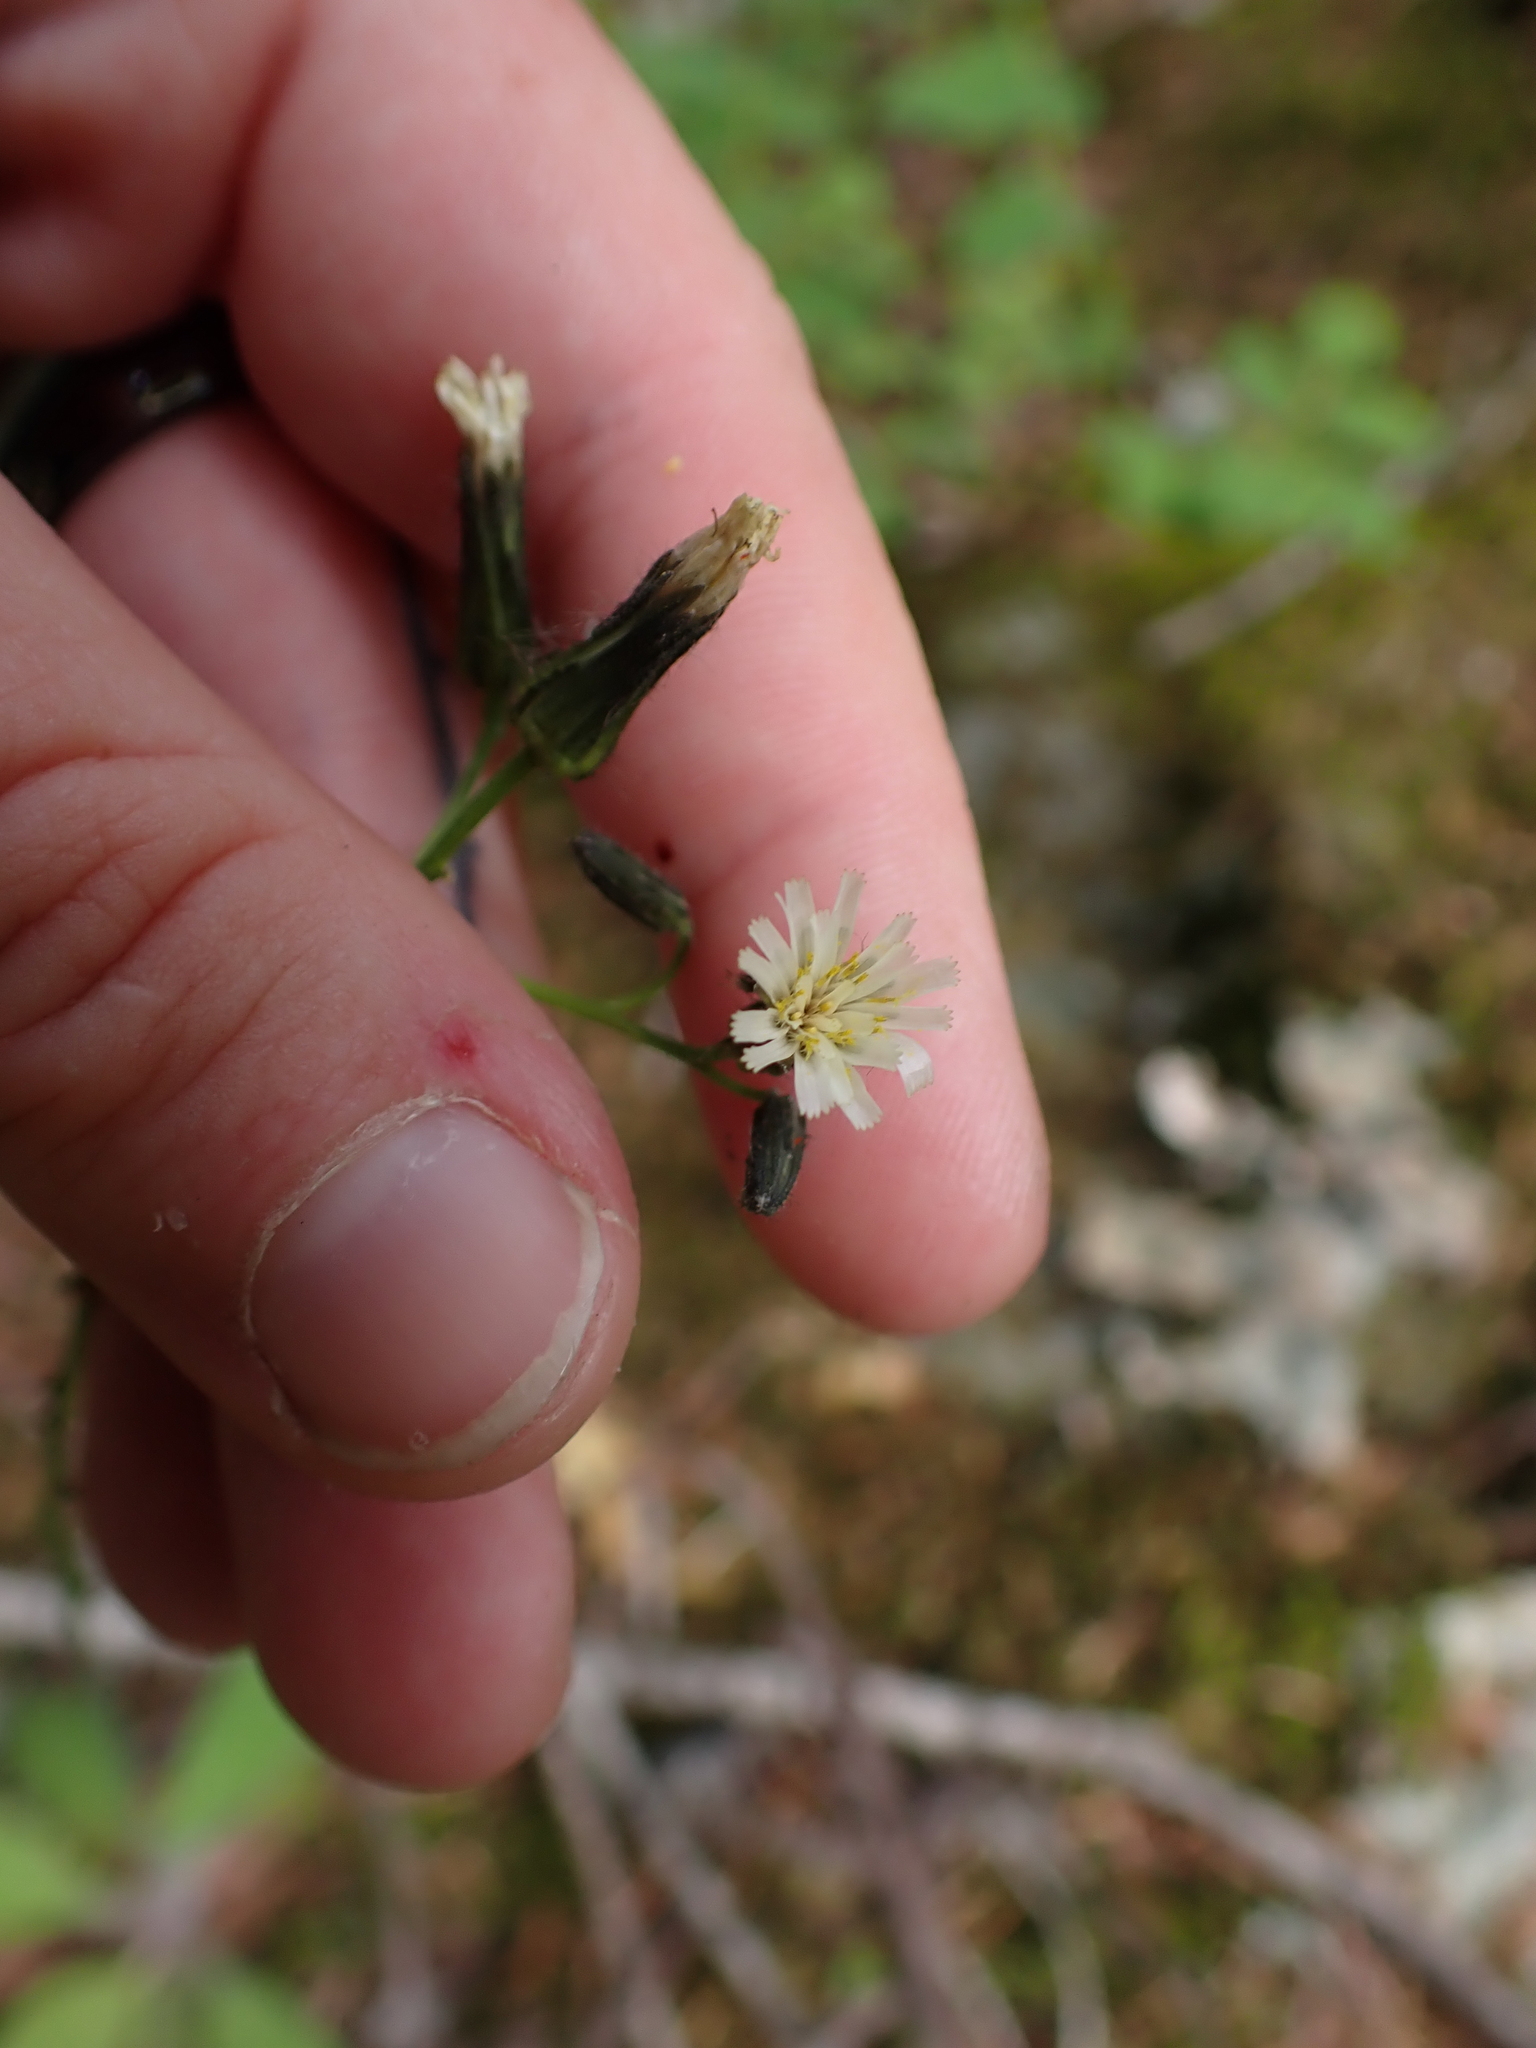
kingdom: Plantae
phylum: Tracheophyta
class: Magnoliopsida
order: Asterales
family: Asteraceae
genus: Hieracium
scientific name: Hieracium albiflorum
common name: White hawkweed
